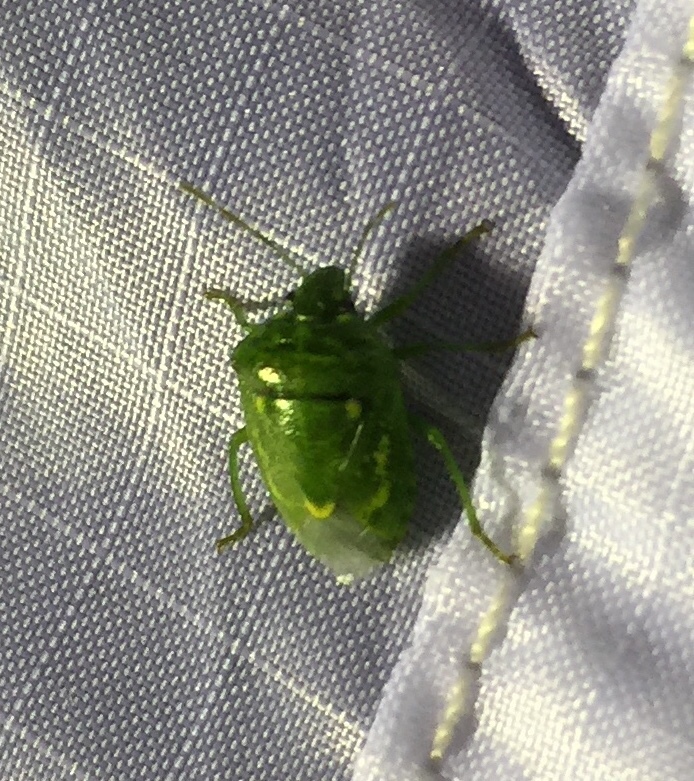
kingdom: Animalia
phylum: Arthropoda
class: Insecta
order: Hemiptera
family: Pentatomidae
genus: Banasa
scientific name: Banasa euchlora
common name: Cedar berry bug
